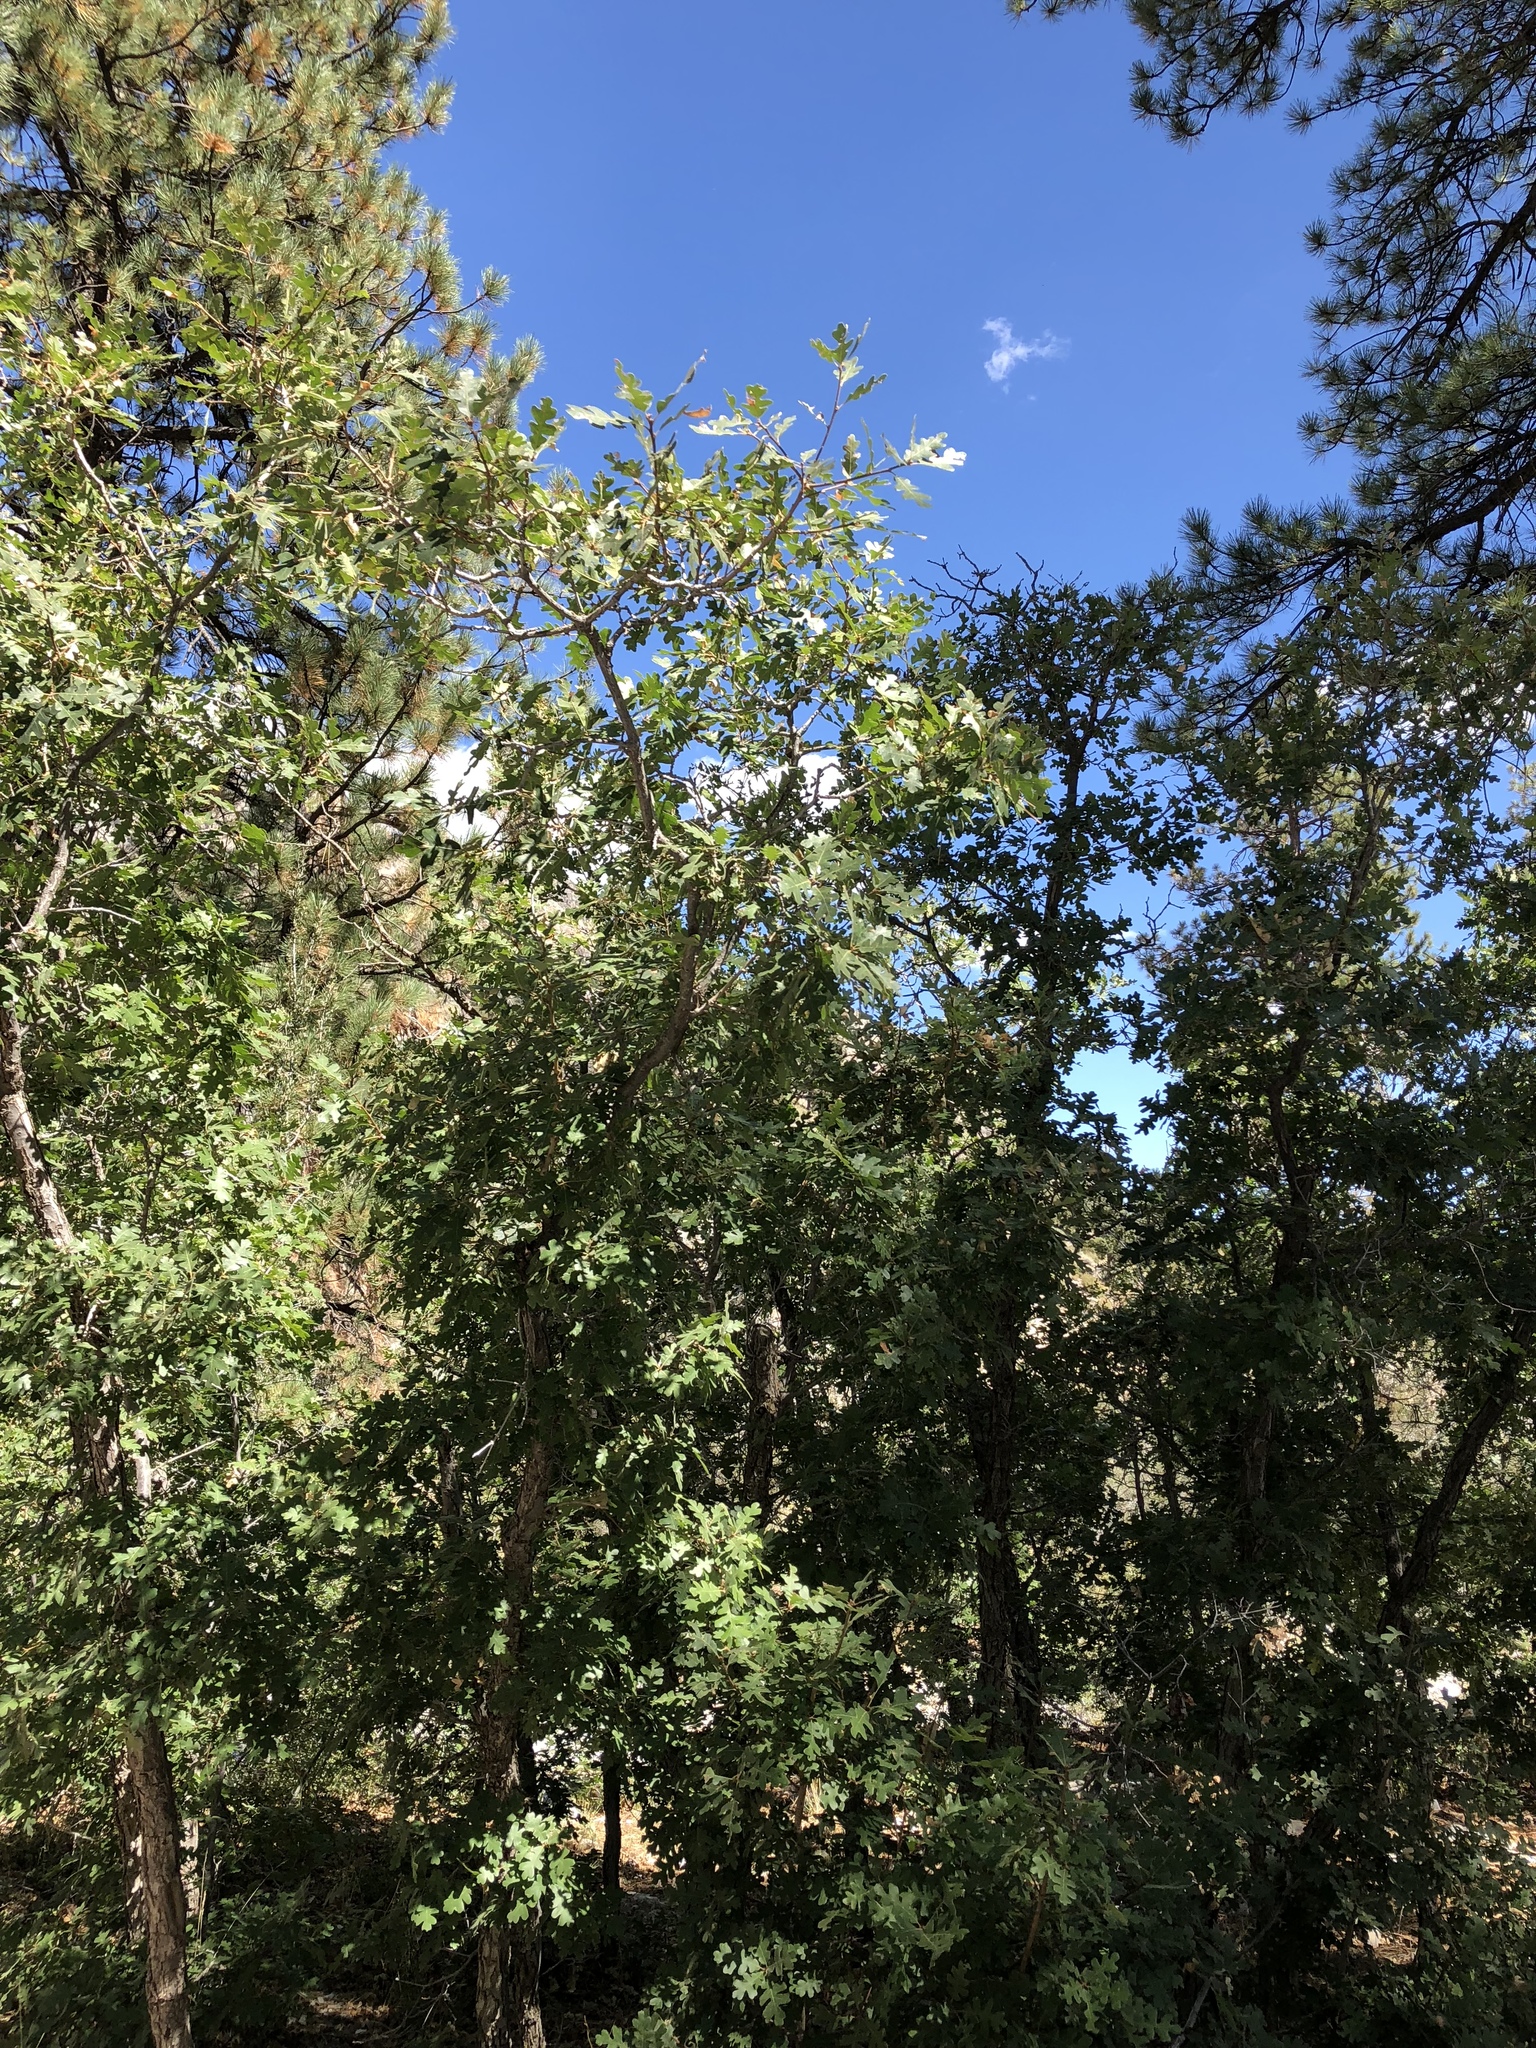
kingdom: Plantae
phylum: Tracheophyta
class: Magnoliopsida
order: Fagales
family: Fagaceae
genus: Quercus
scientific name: Quercus gambelii
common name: Gambel oak
